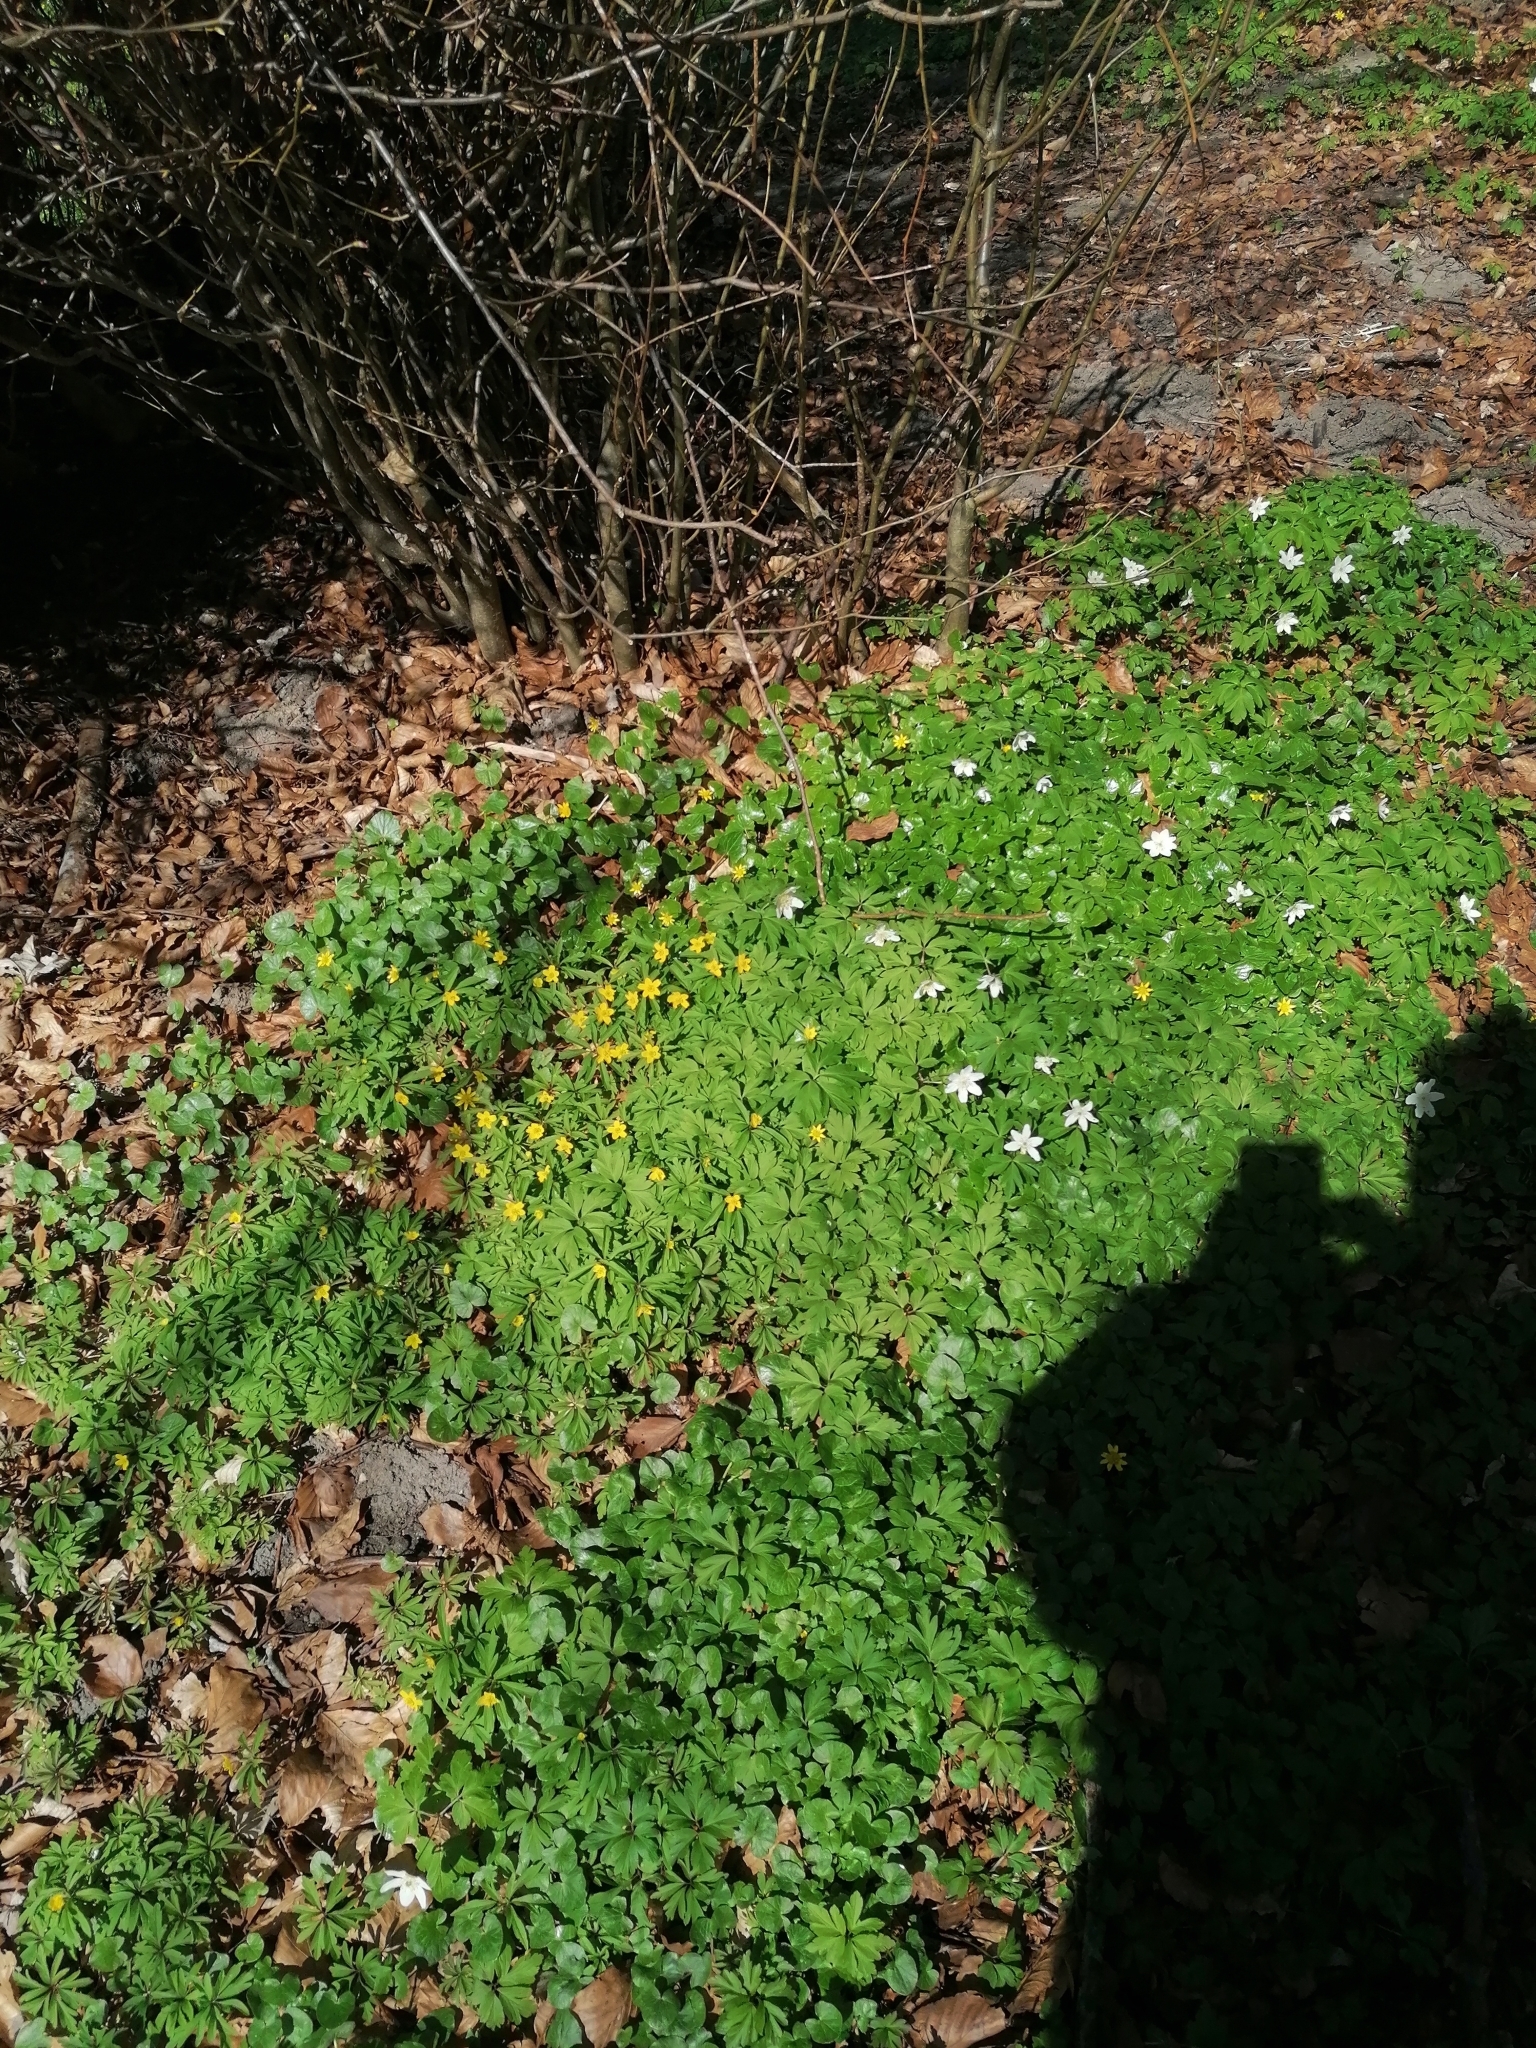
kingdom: Plantae
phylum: Tracheophyta
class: Magnoliopsida
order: Ranunculales
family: Ranunculaceae
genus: Anemone
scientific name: Anemone ranunculoides
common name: Yellow anemone
